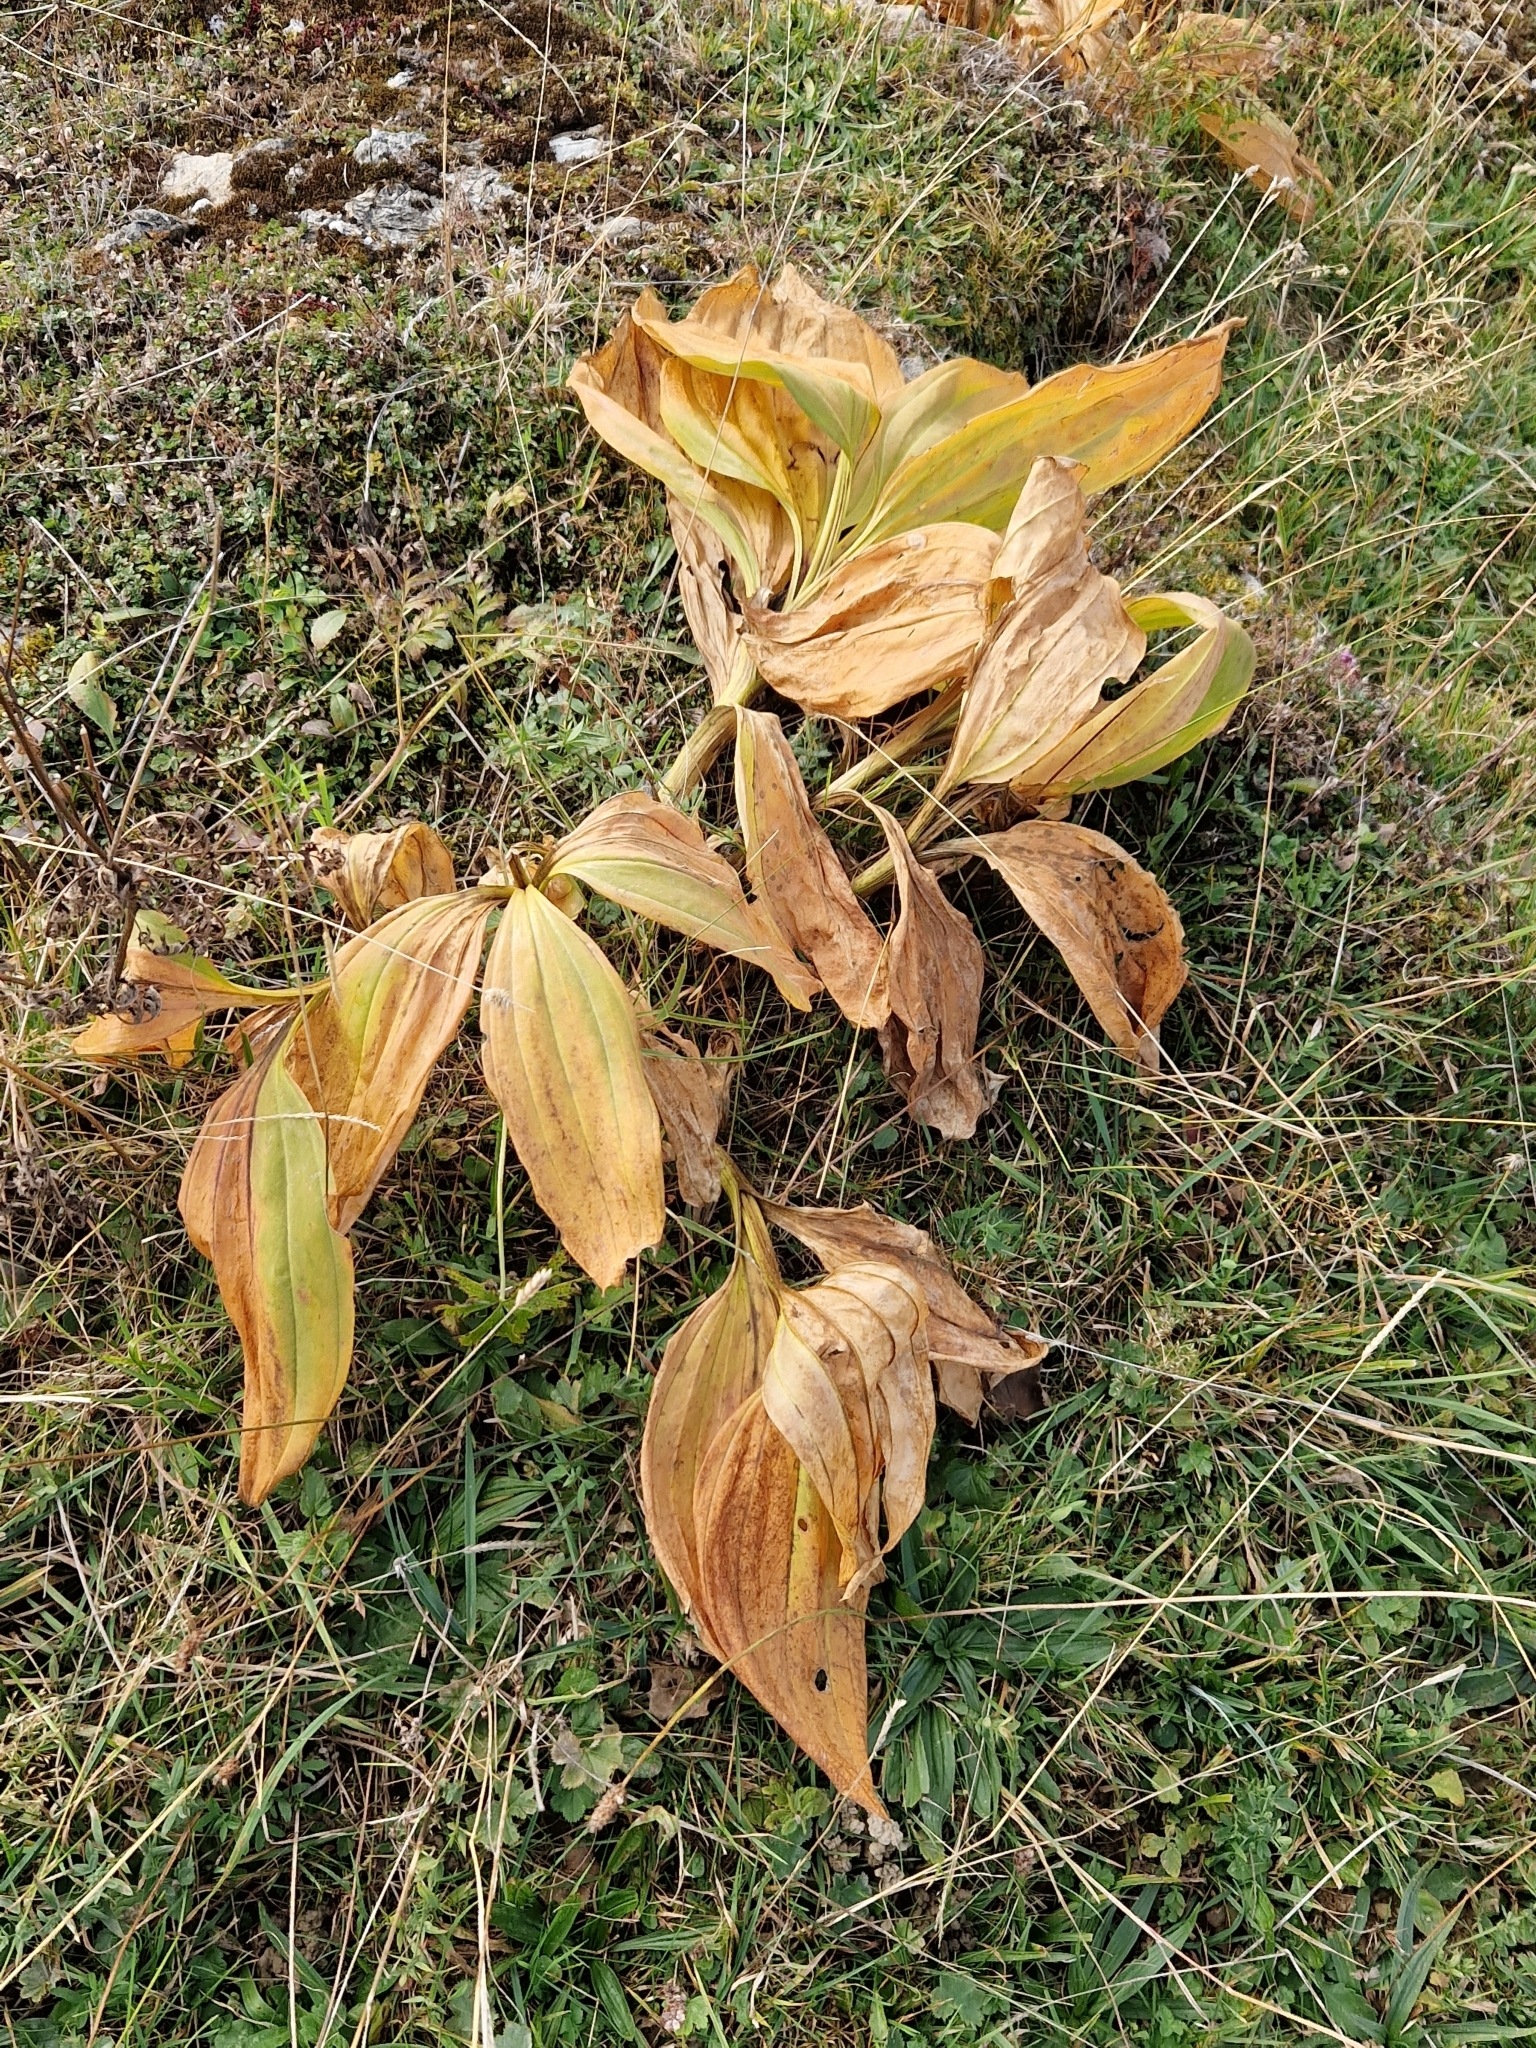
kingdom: Plantae
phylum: Tracheophyta
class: Magnoliopsida
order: Gentianales
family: Gentianaceae
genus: Gentiana
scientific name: Gentiana lutea
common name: Great yellow gentian
